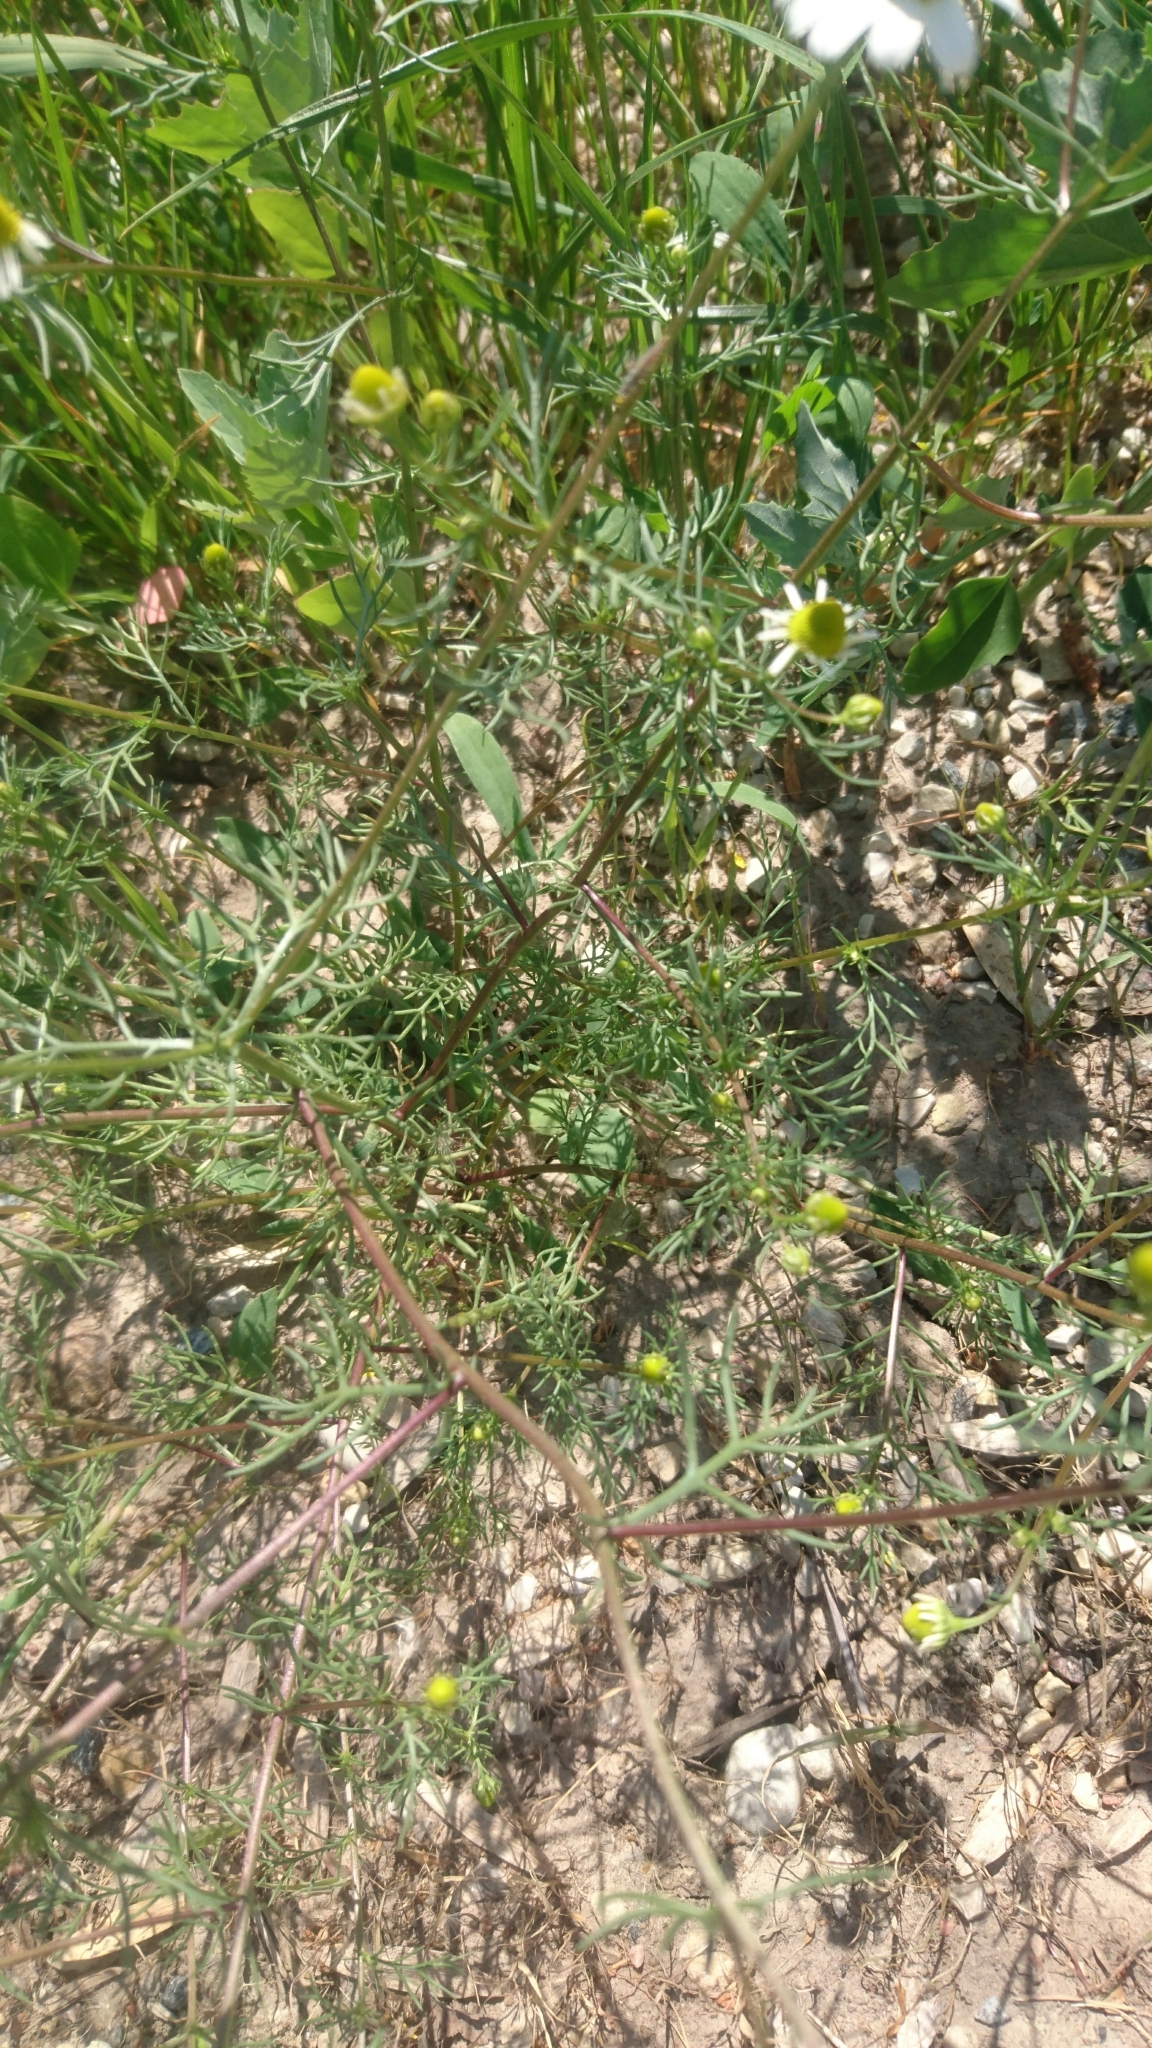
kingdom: Plantae
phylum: Tracheophyta
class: Magnoliopsida
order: Asterales
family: Asteraceae
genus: Matricaria
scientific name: Matricaria chamomilla
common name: Scented mayweed
